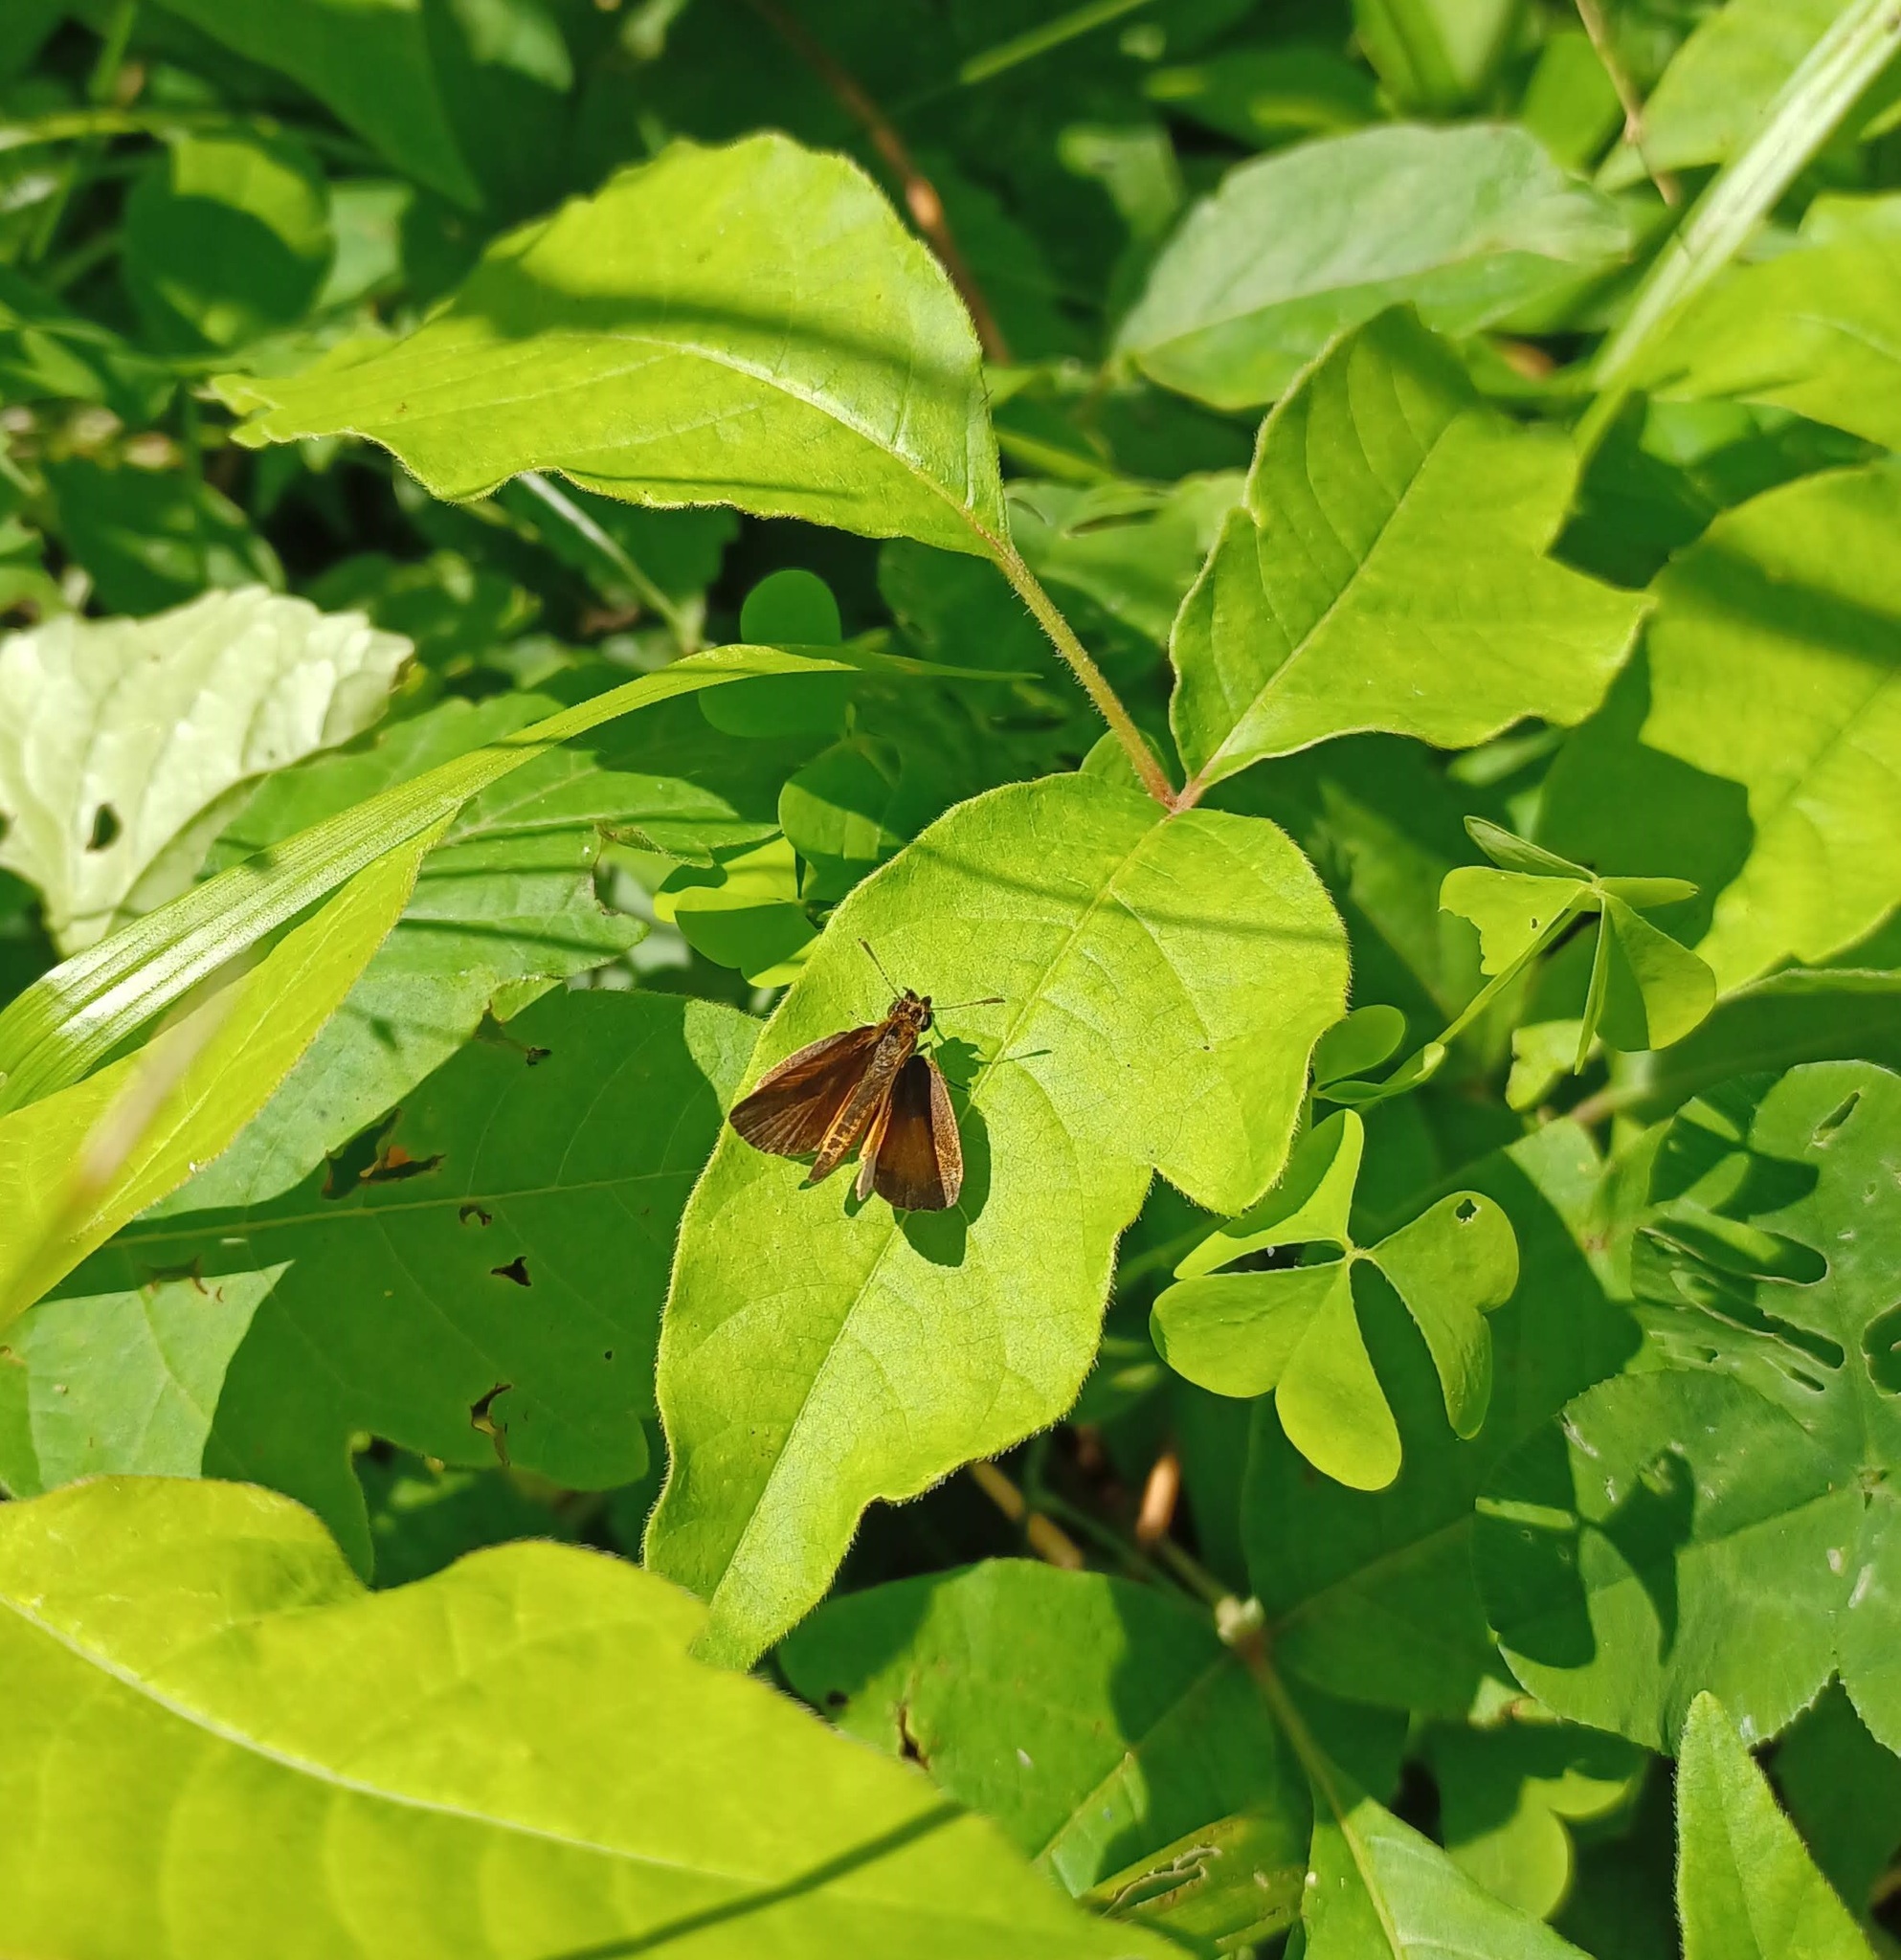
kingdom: Animalia
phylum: Arthropoda
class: Insecta
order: Lepidoptera
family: Hesperiidae
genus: Ancyloxypha
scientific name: Ancyloxypha numitor
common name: Least skipper
